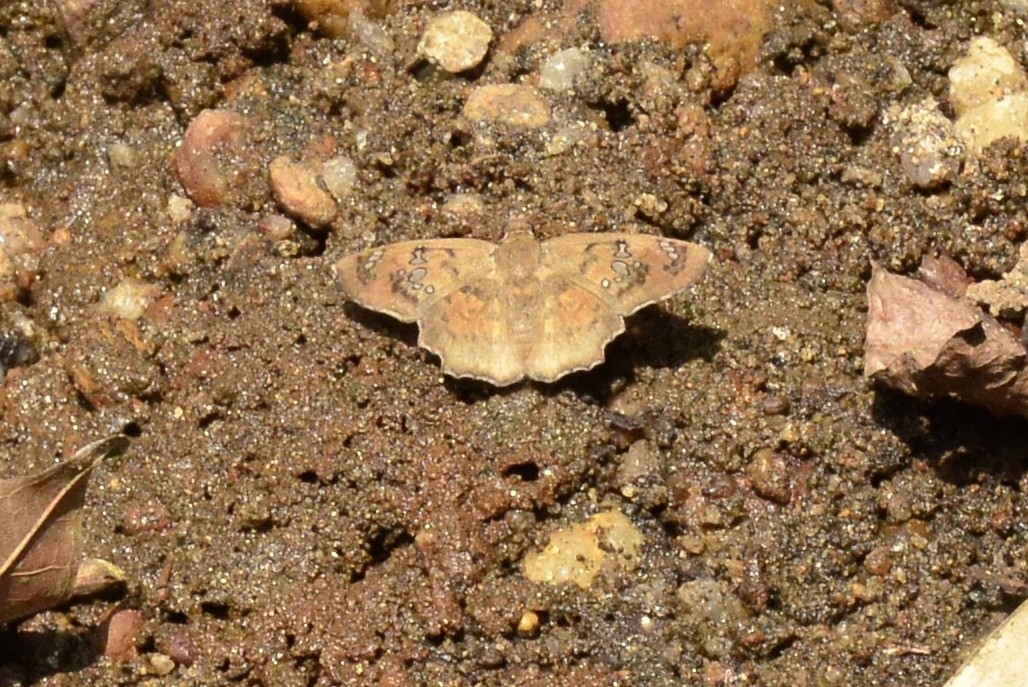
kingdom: Animalia
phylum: Arthropoda
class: Insecta
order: Lepidoptera
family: Hesperiidae
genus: Caprona
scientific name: Caprona ransonnettii
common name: Golden angle
